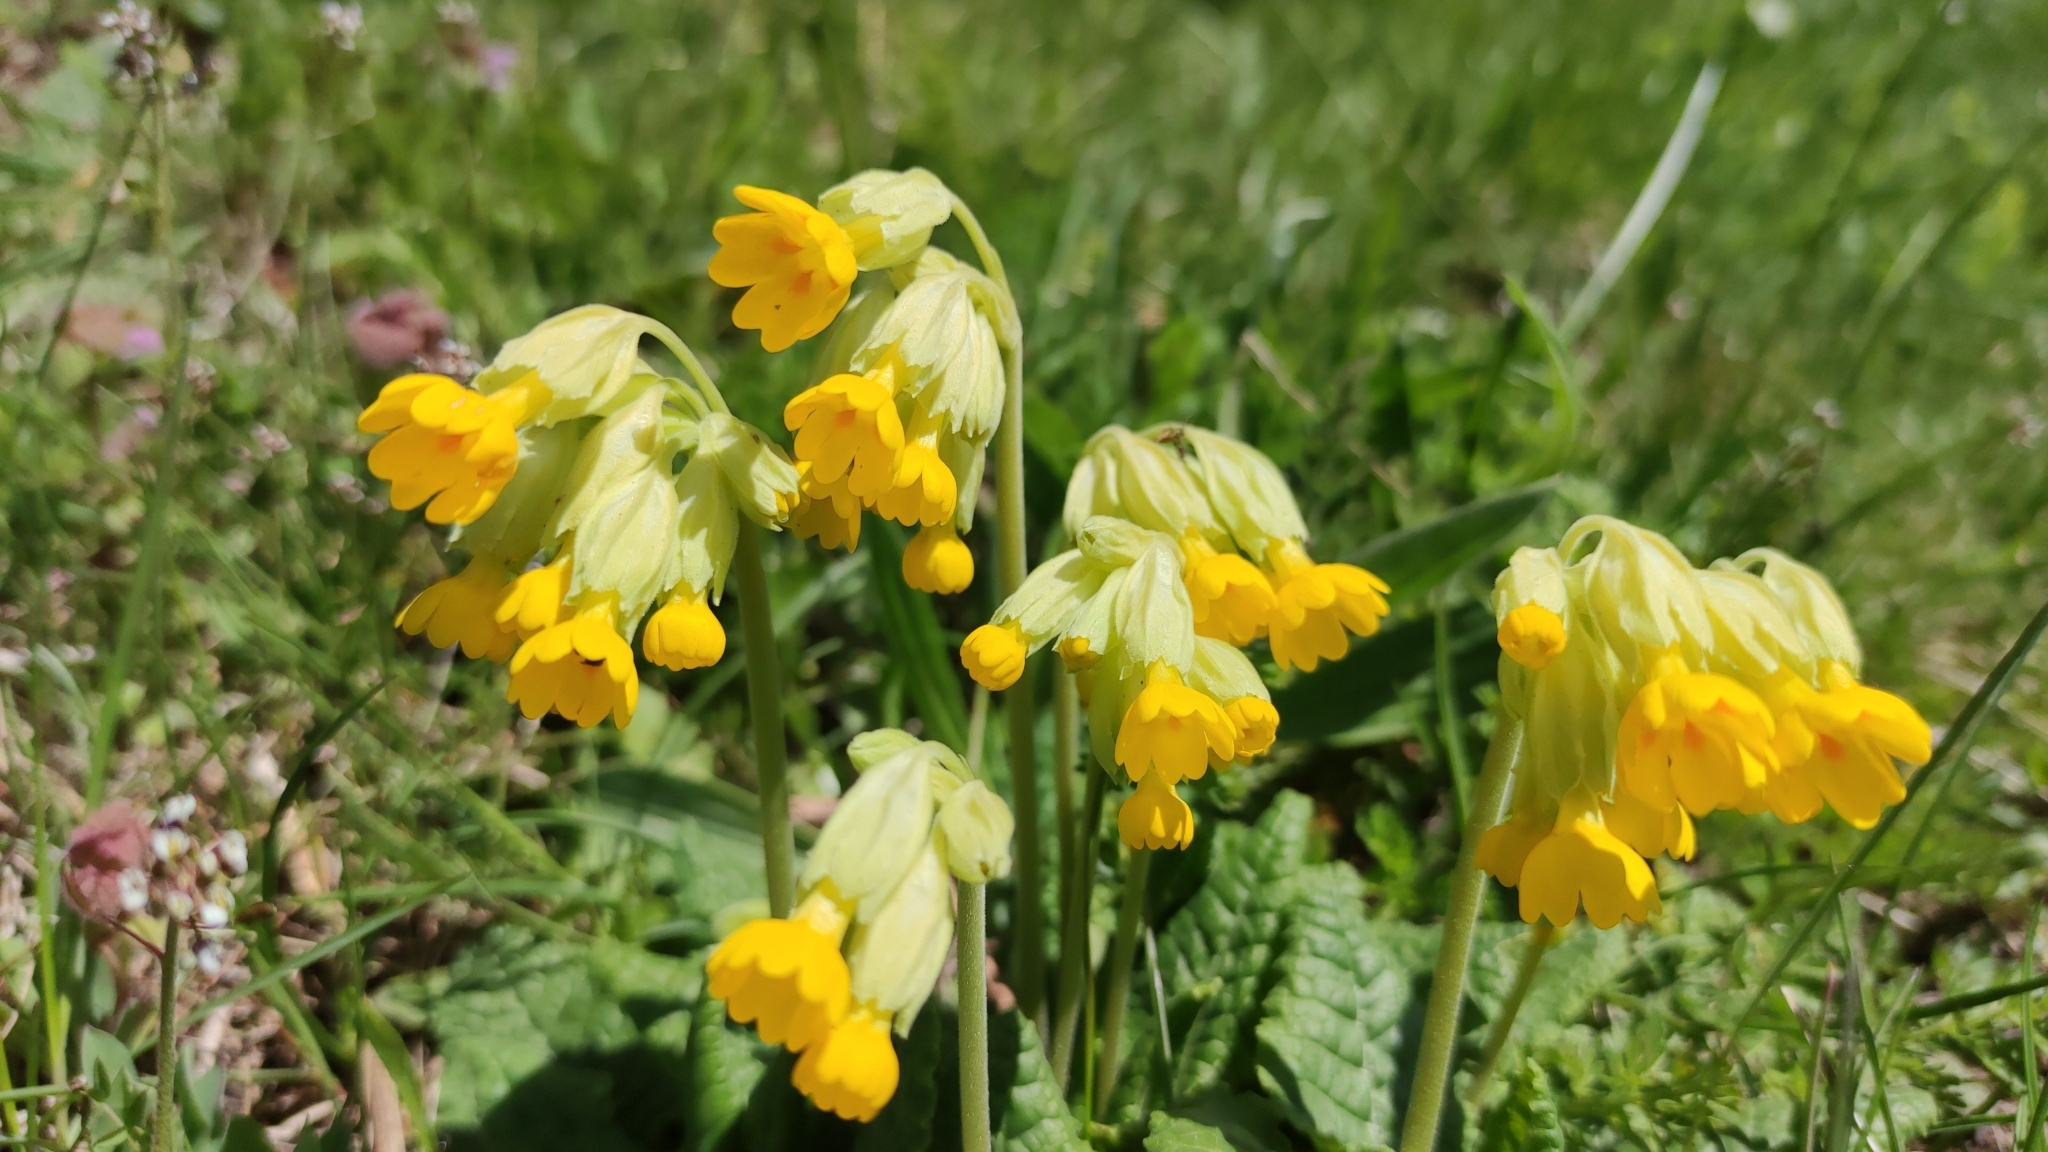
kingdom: Plantae
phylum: Tracheophyta
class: Magnoliopsida
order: Ericales
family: Primulaceae
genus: Primula
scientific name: Primula veris
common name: Cowslip
